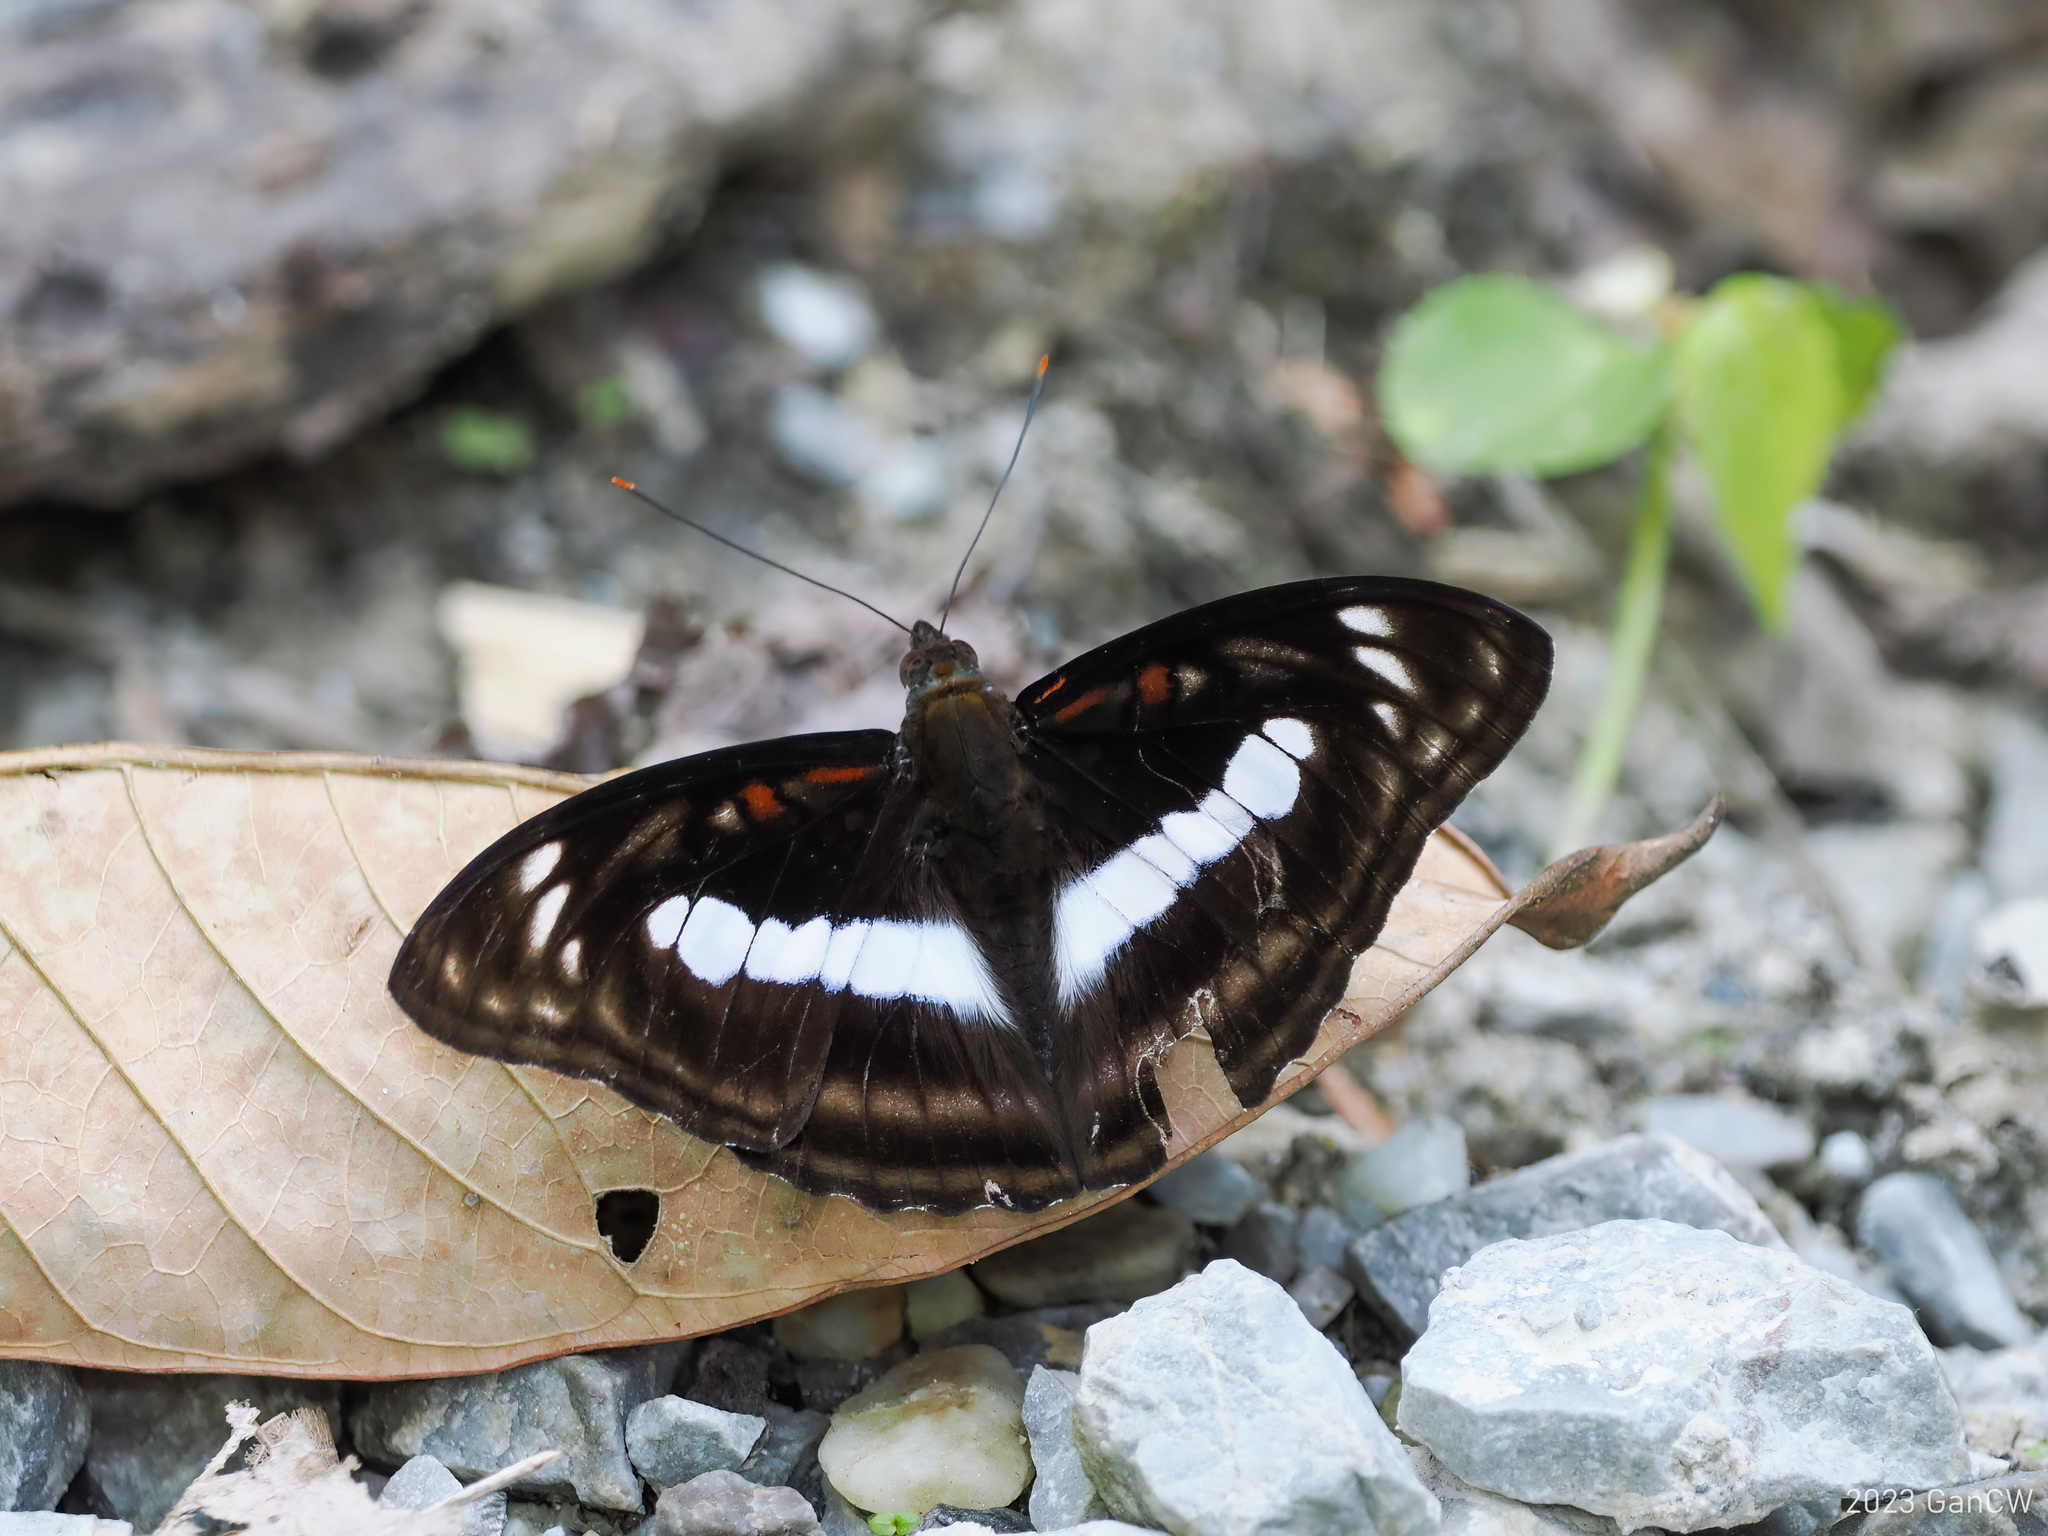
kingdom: Animalia
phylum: Arthropoda
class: Insecta
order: Lepidoptera
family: Nymphalidae
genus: Parathyma
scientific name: Parathyma selenophora
